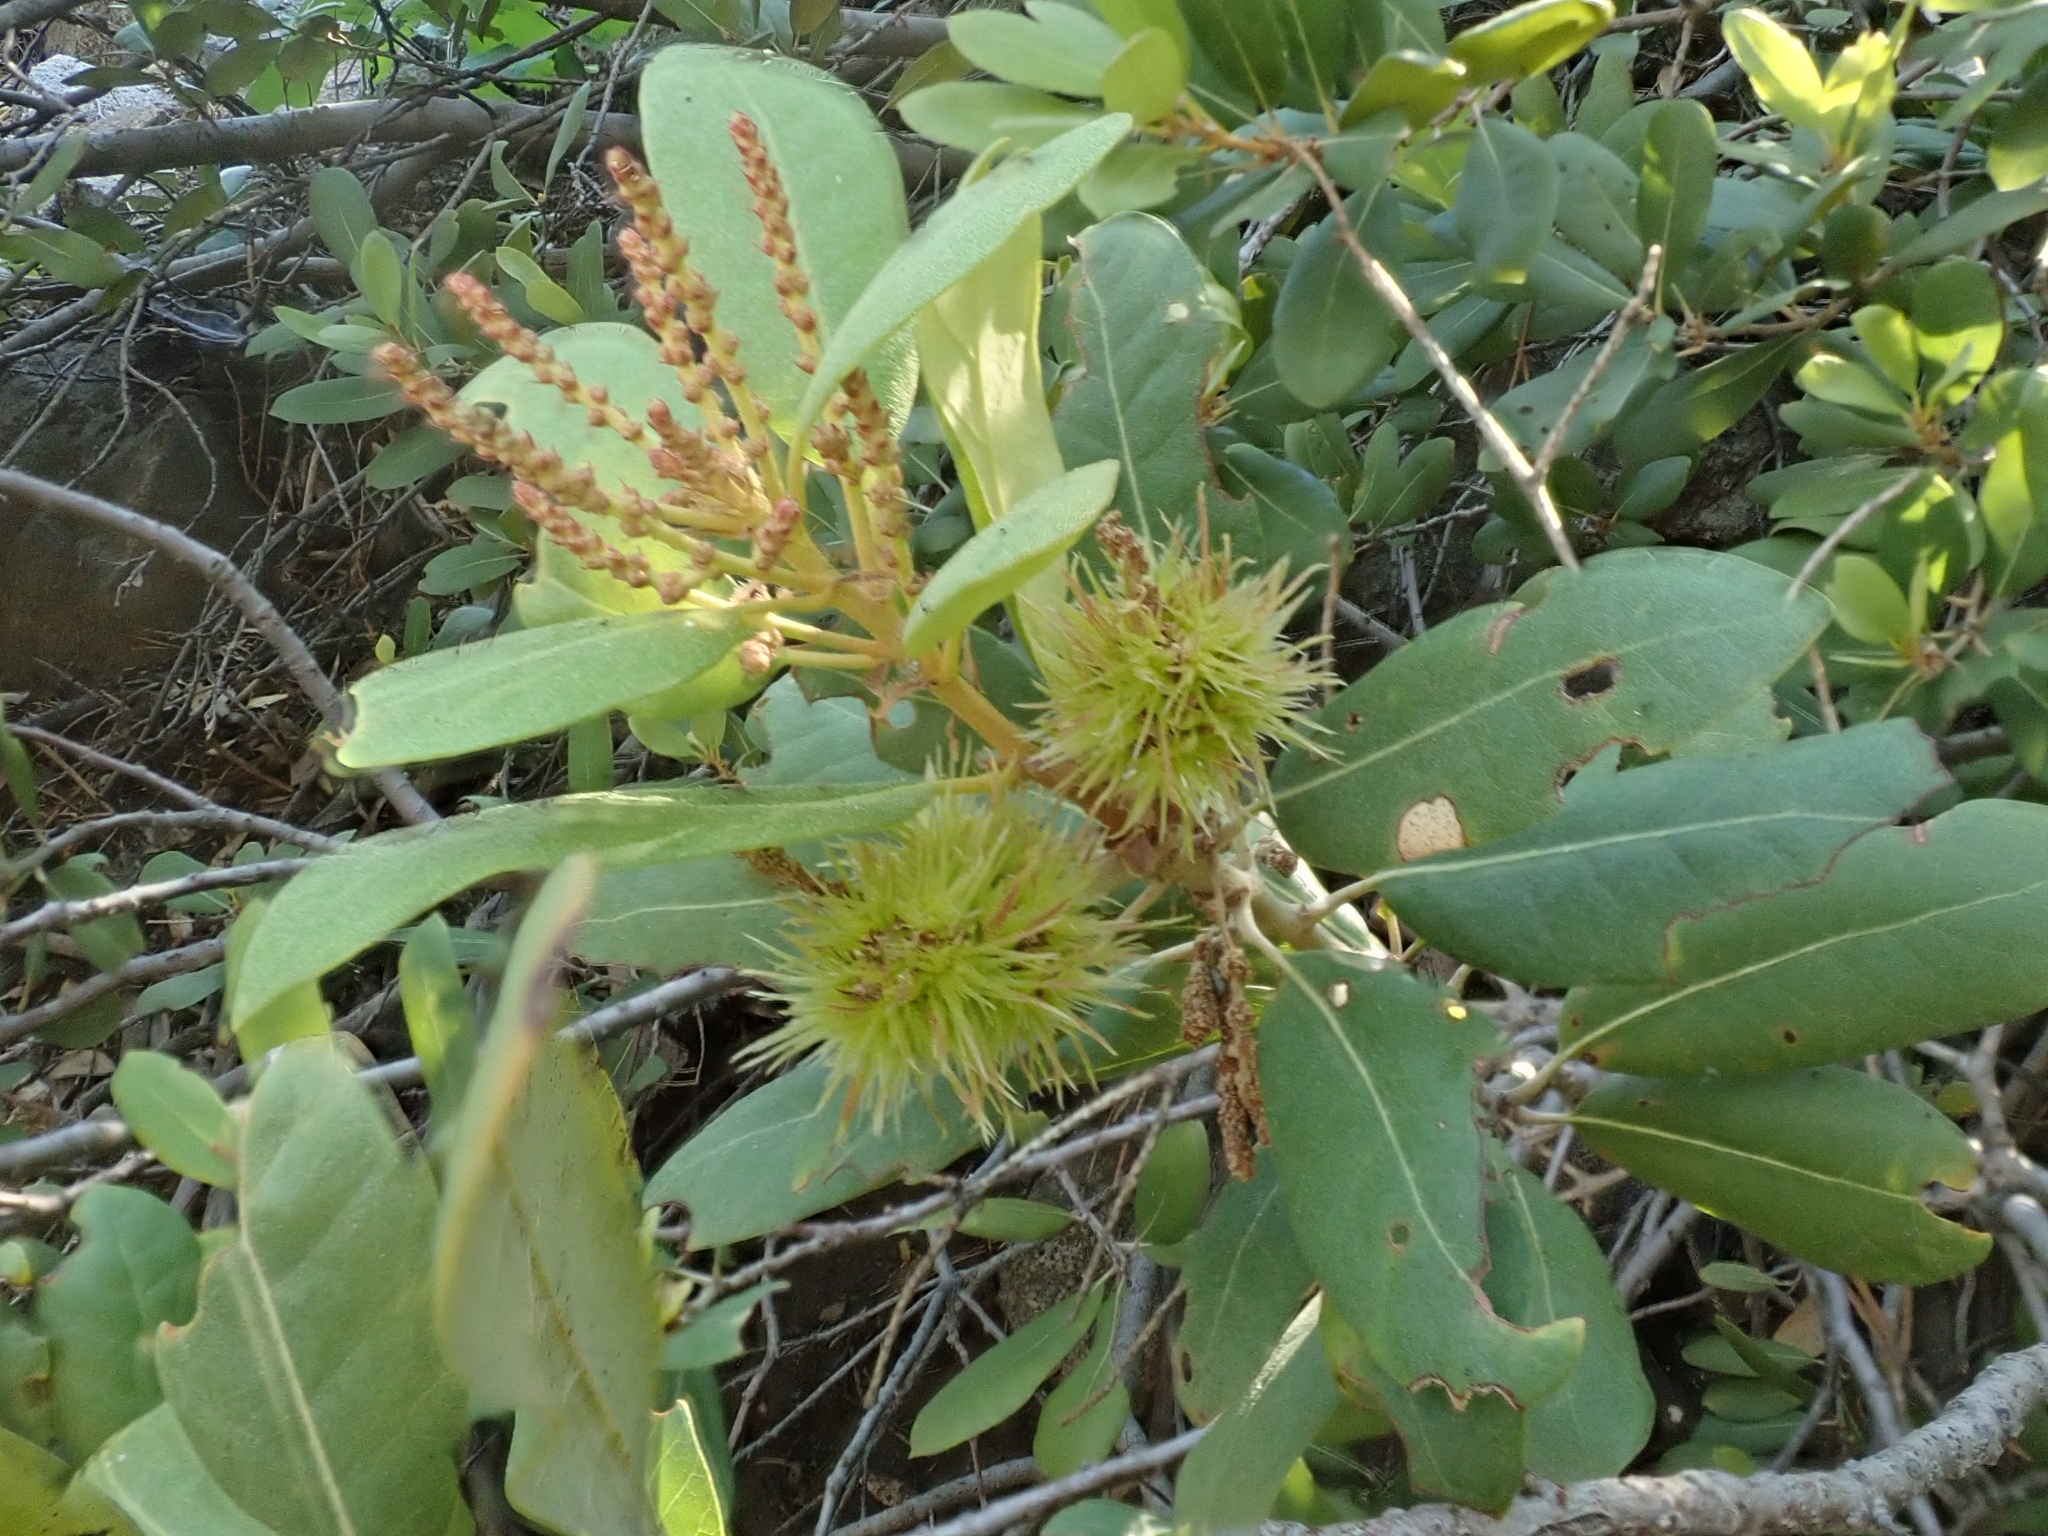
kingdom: Plantae
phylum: Tracheophyta
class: Magnoliopsida
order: Fagales
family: Fagaceae
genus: Chrysolepis
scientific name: Chrysolepis sempervirens
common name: Bush chinquapin
